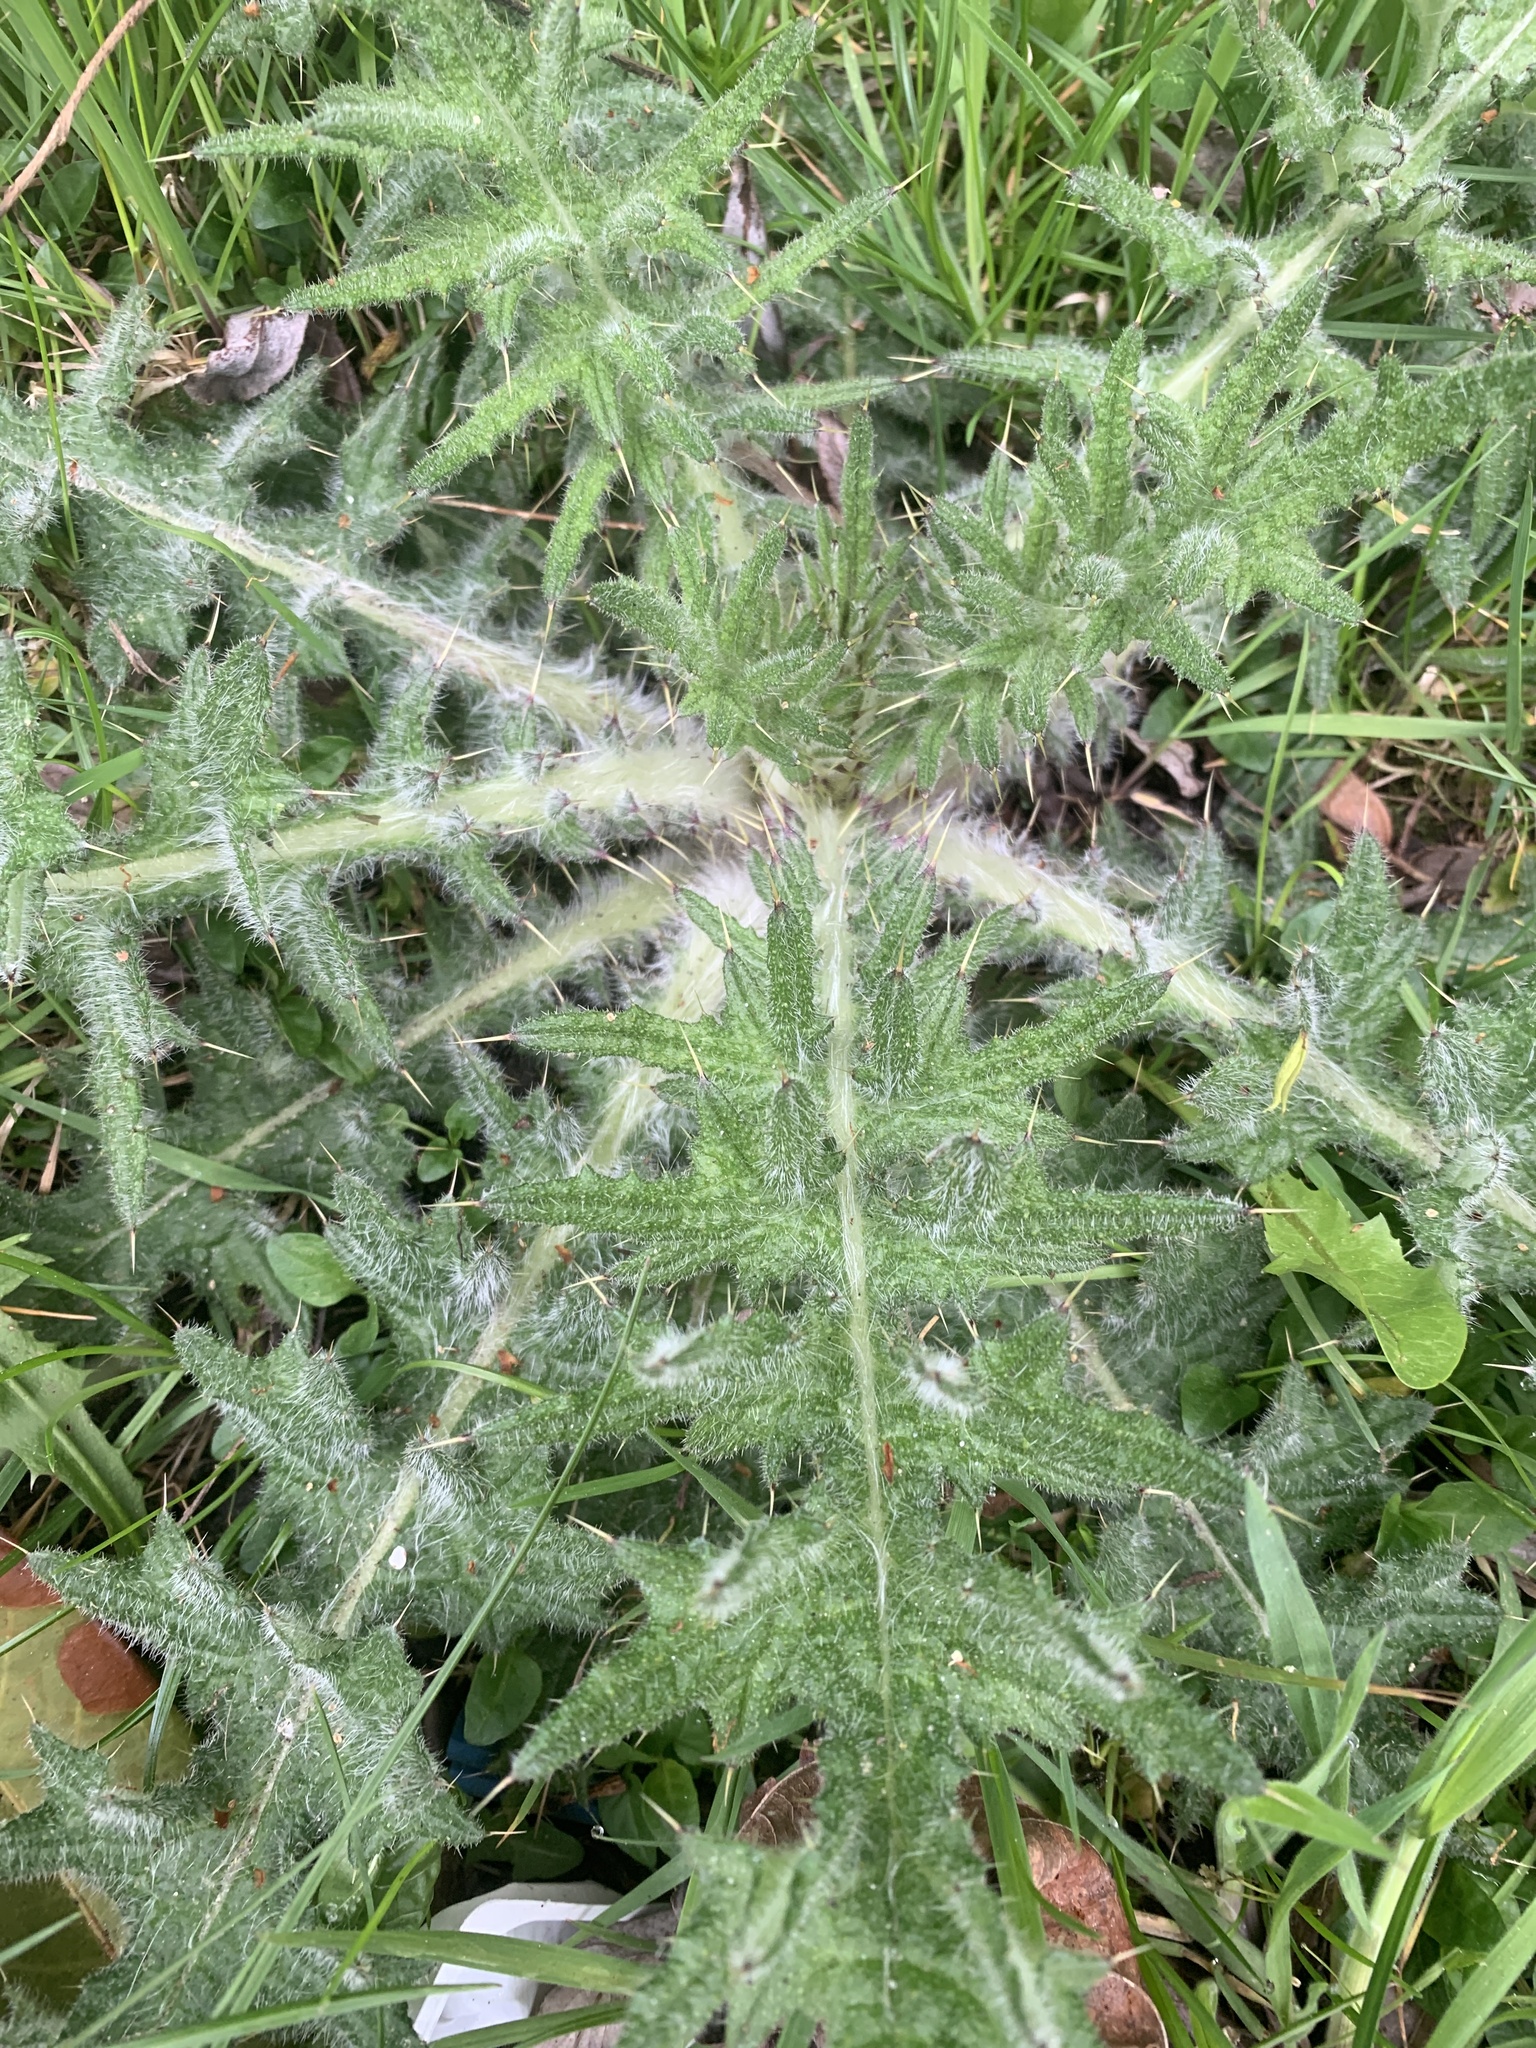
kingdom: Plantae
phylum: Tracheophyta
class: Magnoliopsida
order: Asterales
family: Asteraceae
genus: Cirsium
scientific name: Cirsium vulgare
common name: Bull thistle
